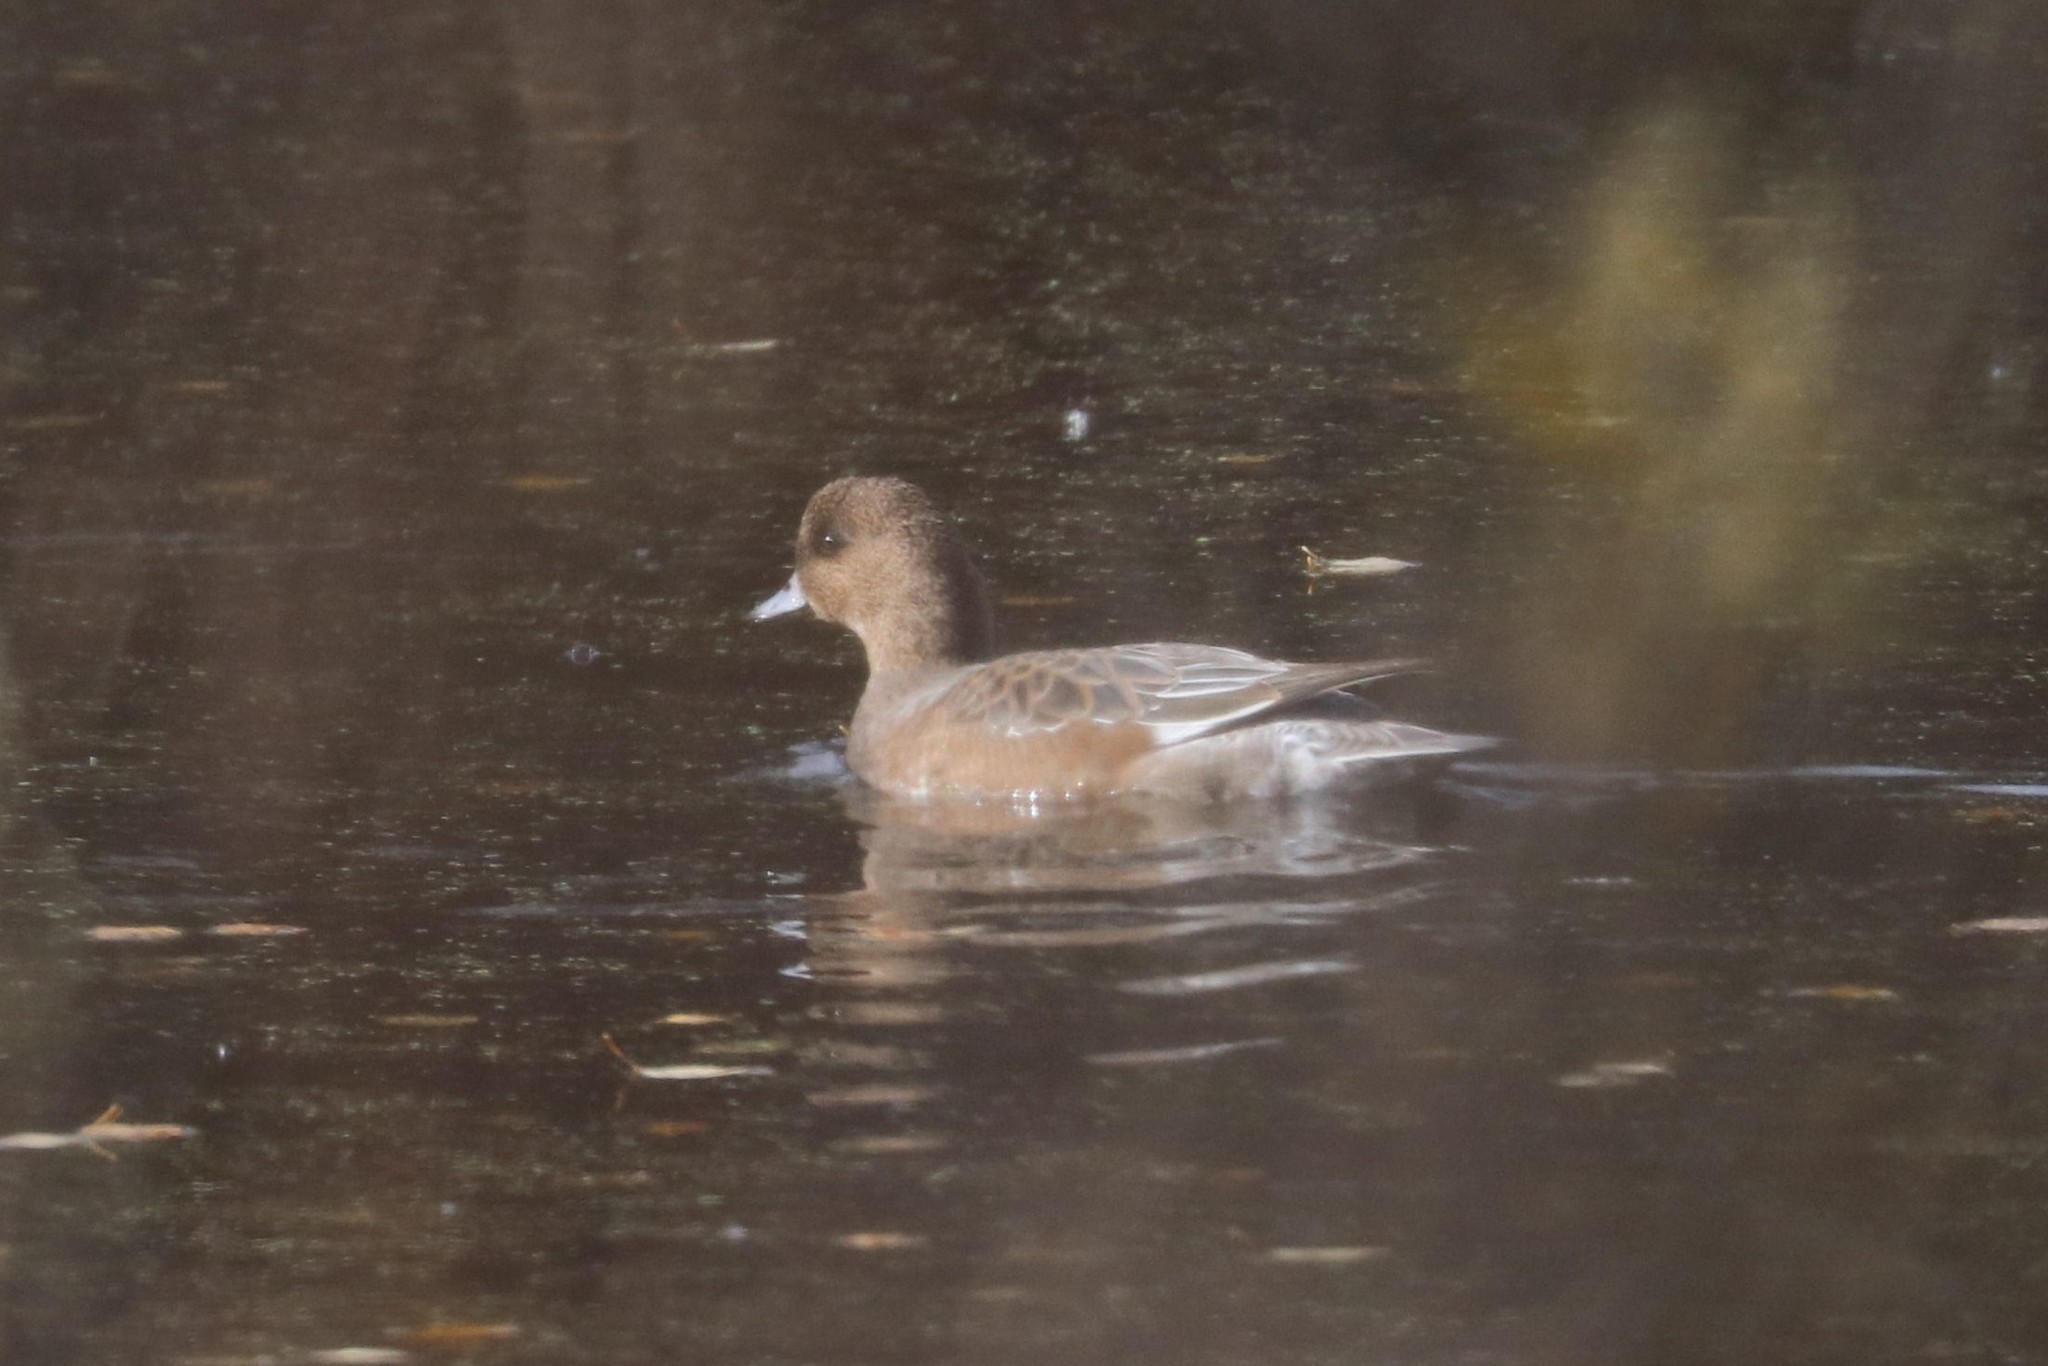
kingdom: Animalia
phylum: Chordata
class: Aves
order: Anseriformes
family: Anatidae
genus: Mareca
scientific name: Mareca penelope
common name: Eurasian wigeon
